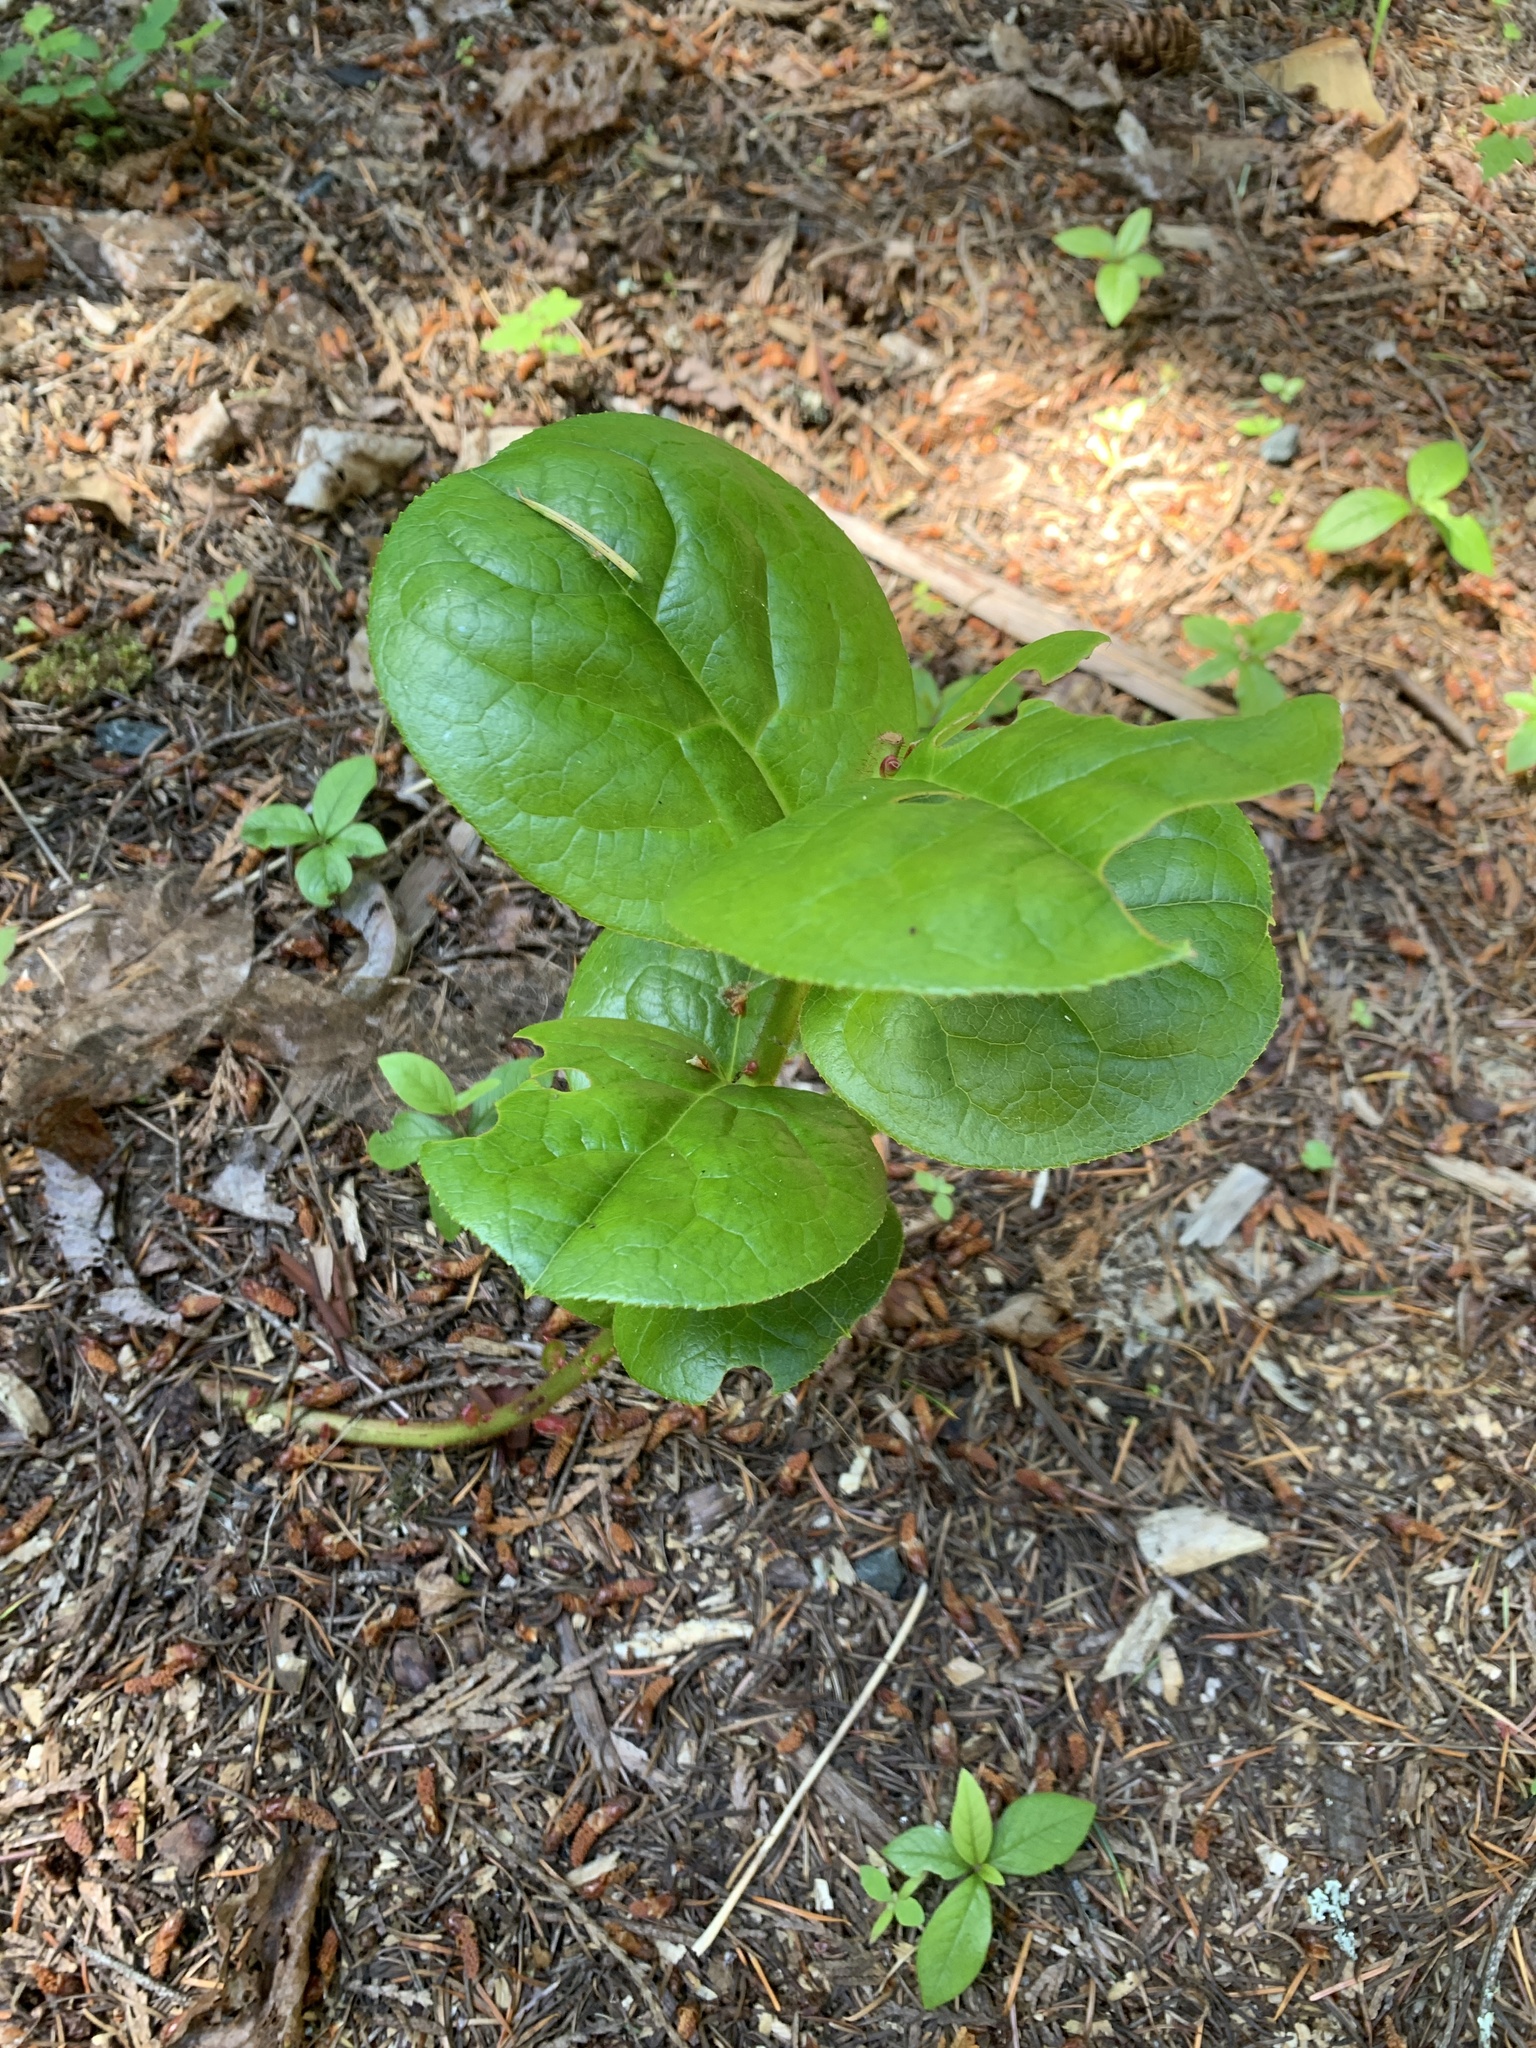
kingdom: Plantae
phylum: Tracheophyta
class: Magnoliopsida
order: Ericales
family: Ericaceae
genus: Gaultheria
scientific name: Gaultheria shallon
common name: Shallon
